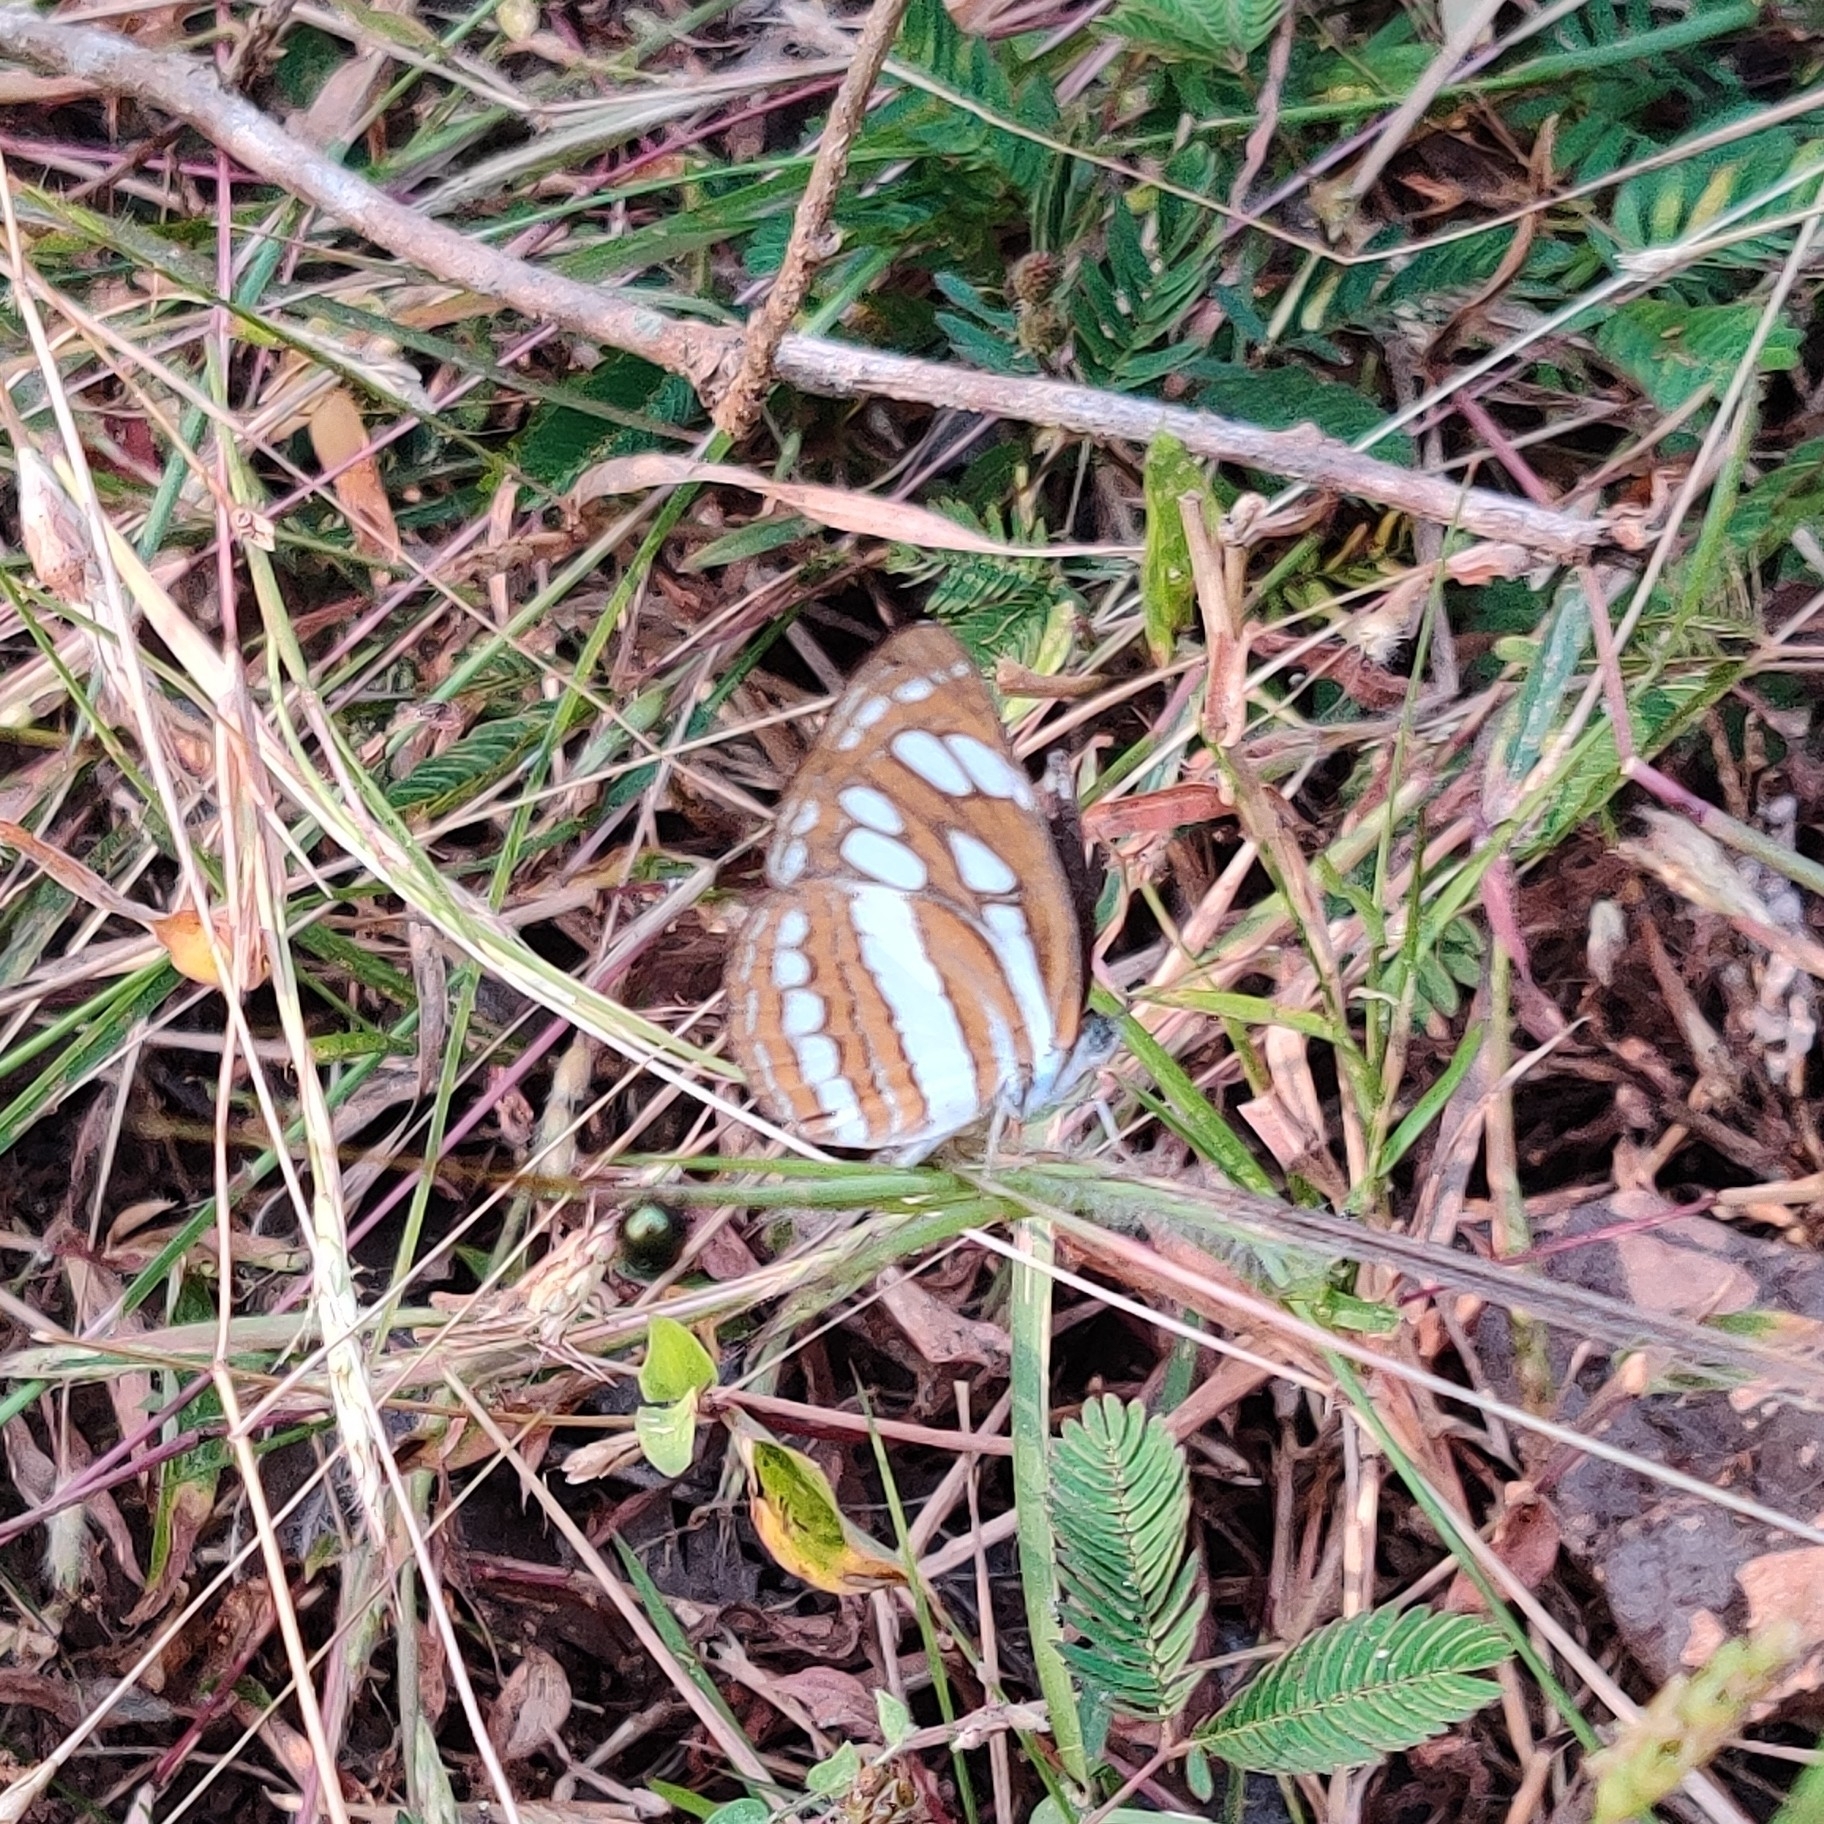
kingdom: Animalia
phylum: Arthropoda
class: Insecta
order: Lepidoptera
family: Nymphalidae
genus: Neptis
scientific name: Neptis hylas
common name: Common sailer
